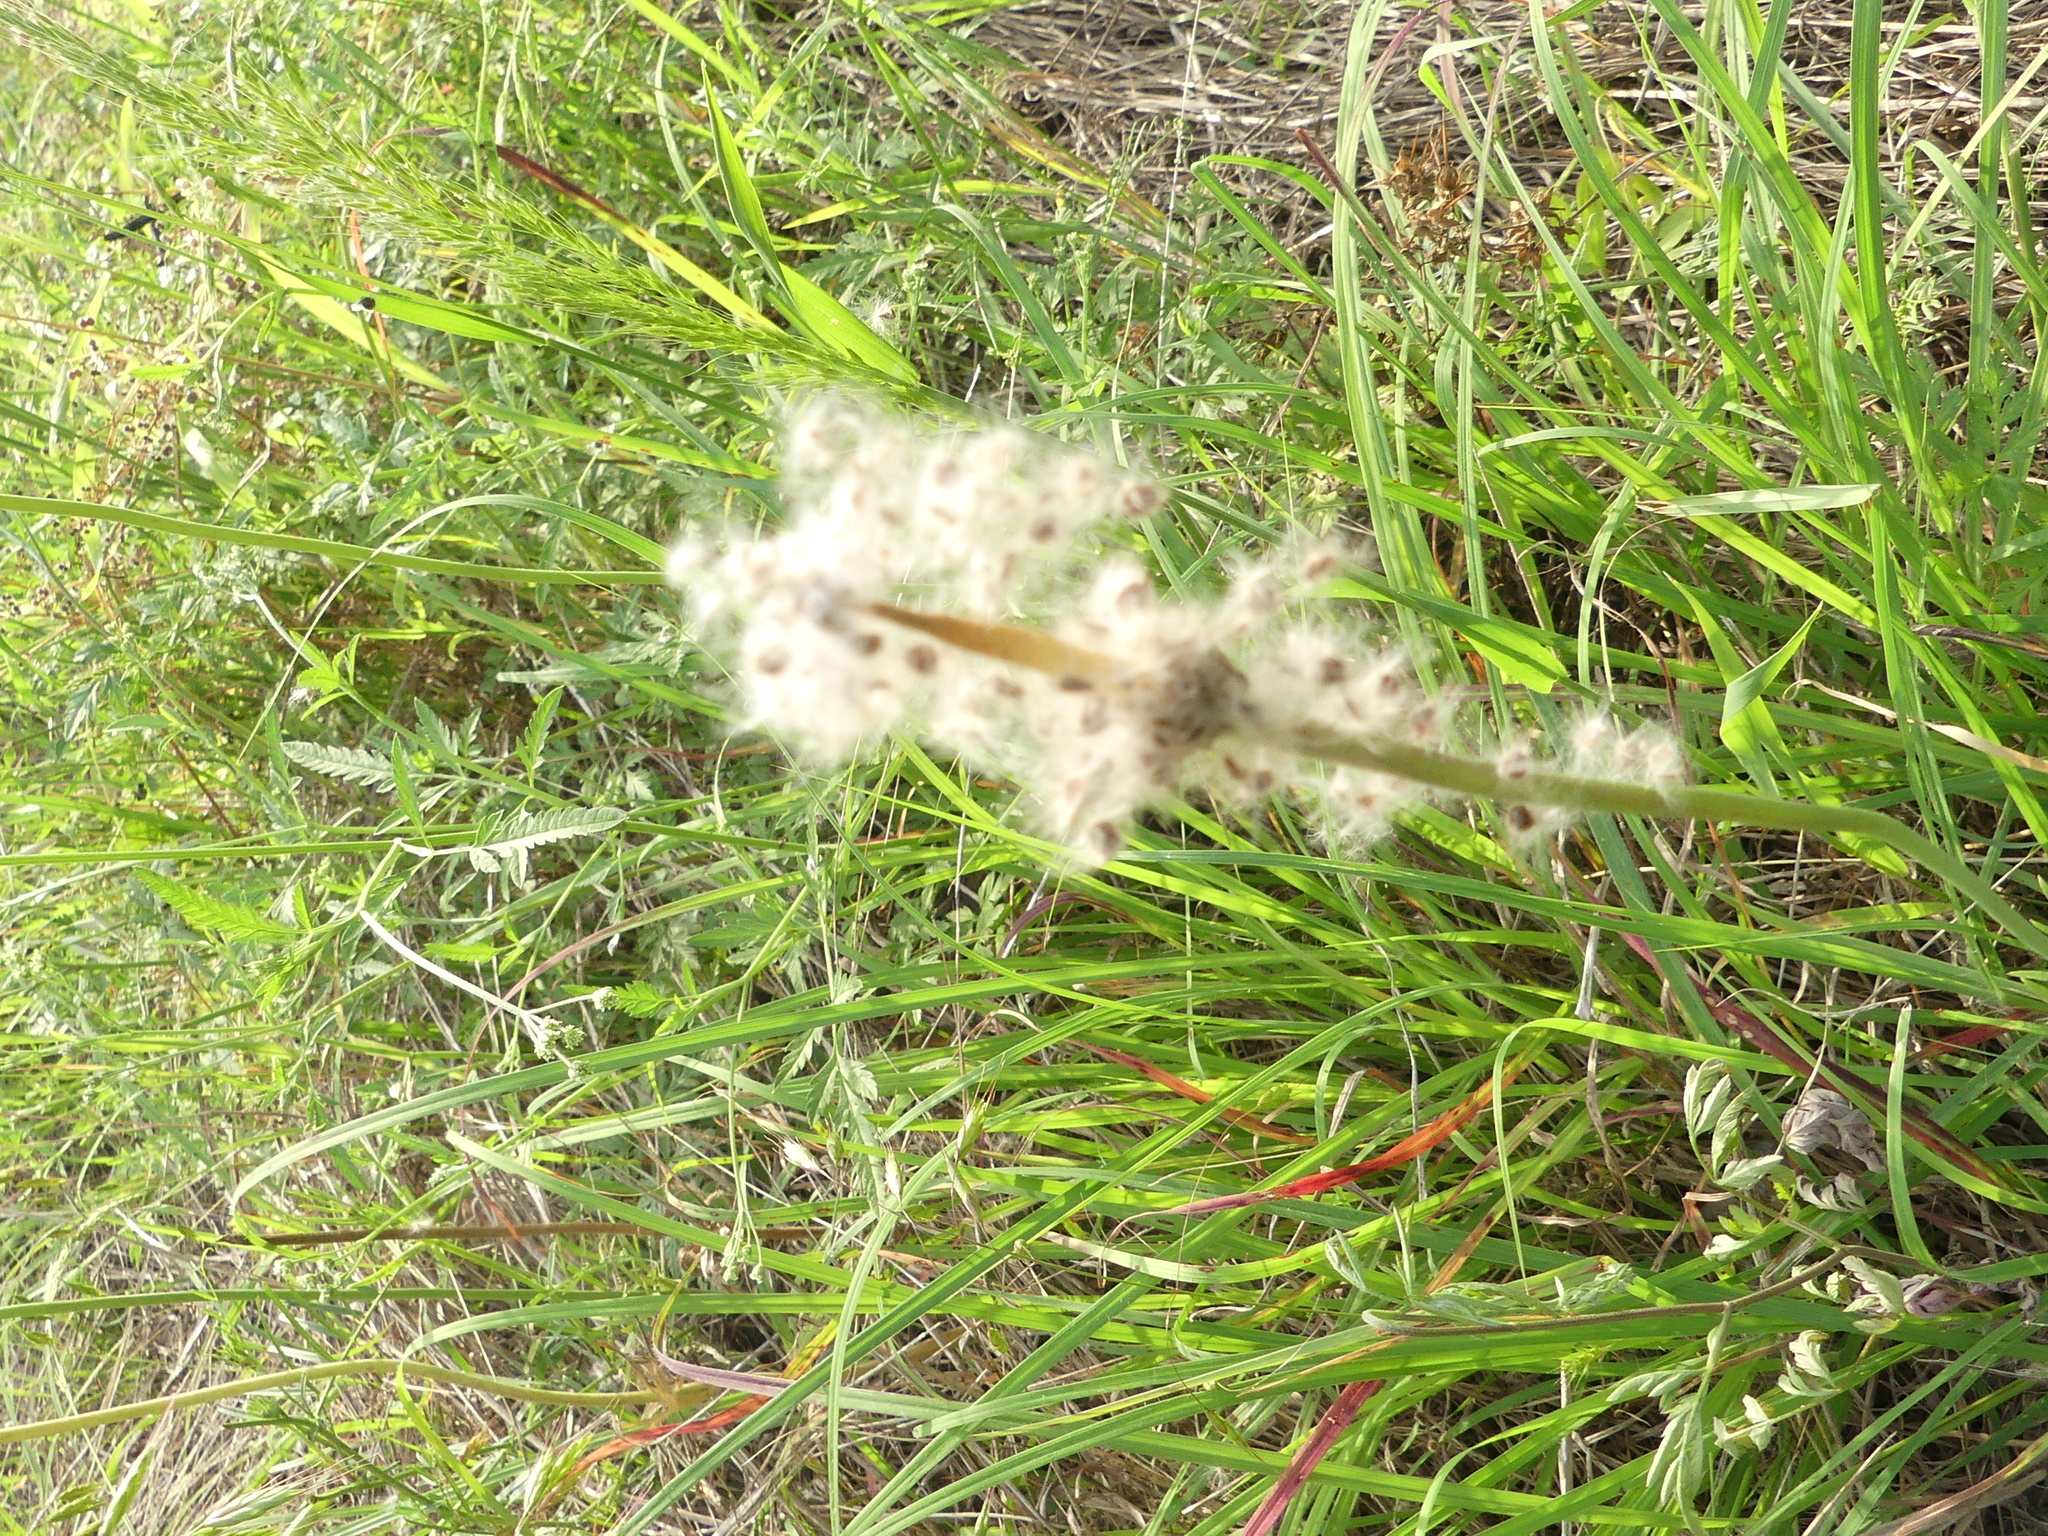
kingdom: Plantae
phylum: Tracheophyta
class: Magnoliopsida
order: Ranunculales
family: Ranunculaceae
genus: Anemone
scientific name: Anemone berlandieri
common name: Ten-petal anemone
